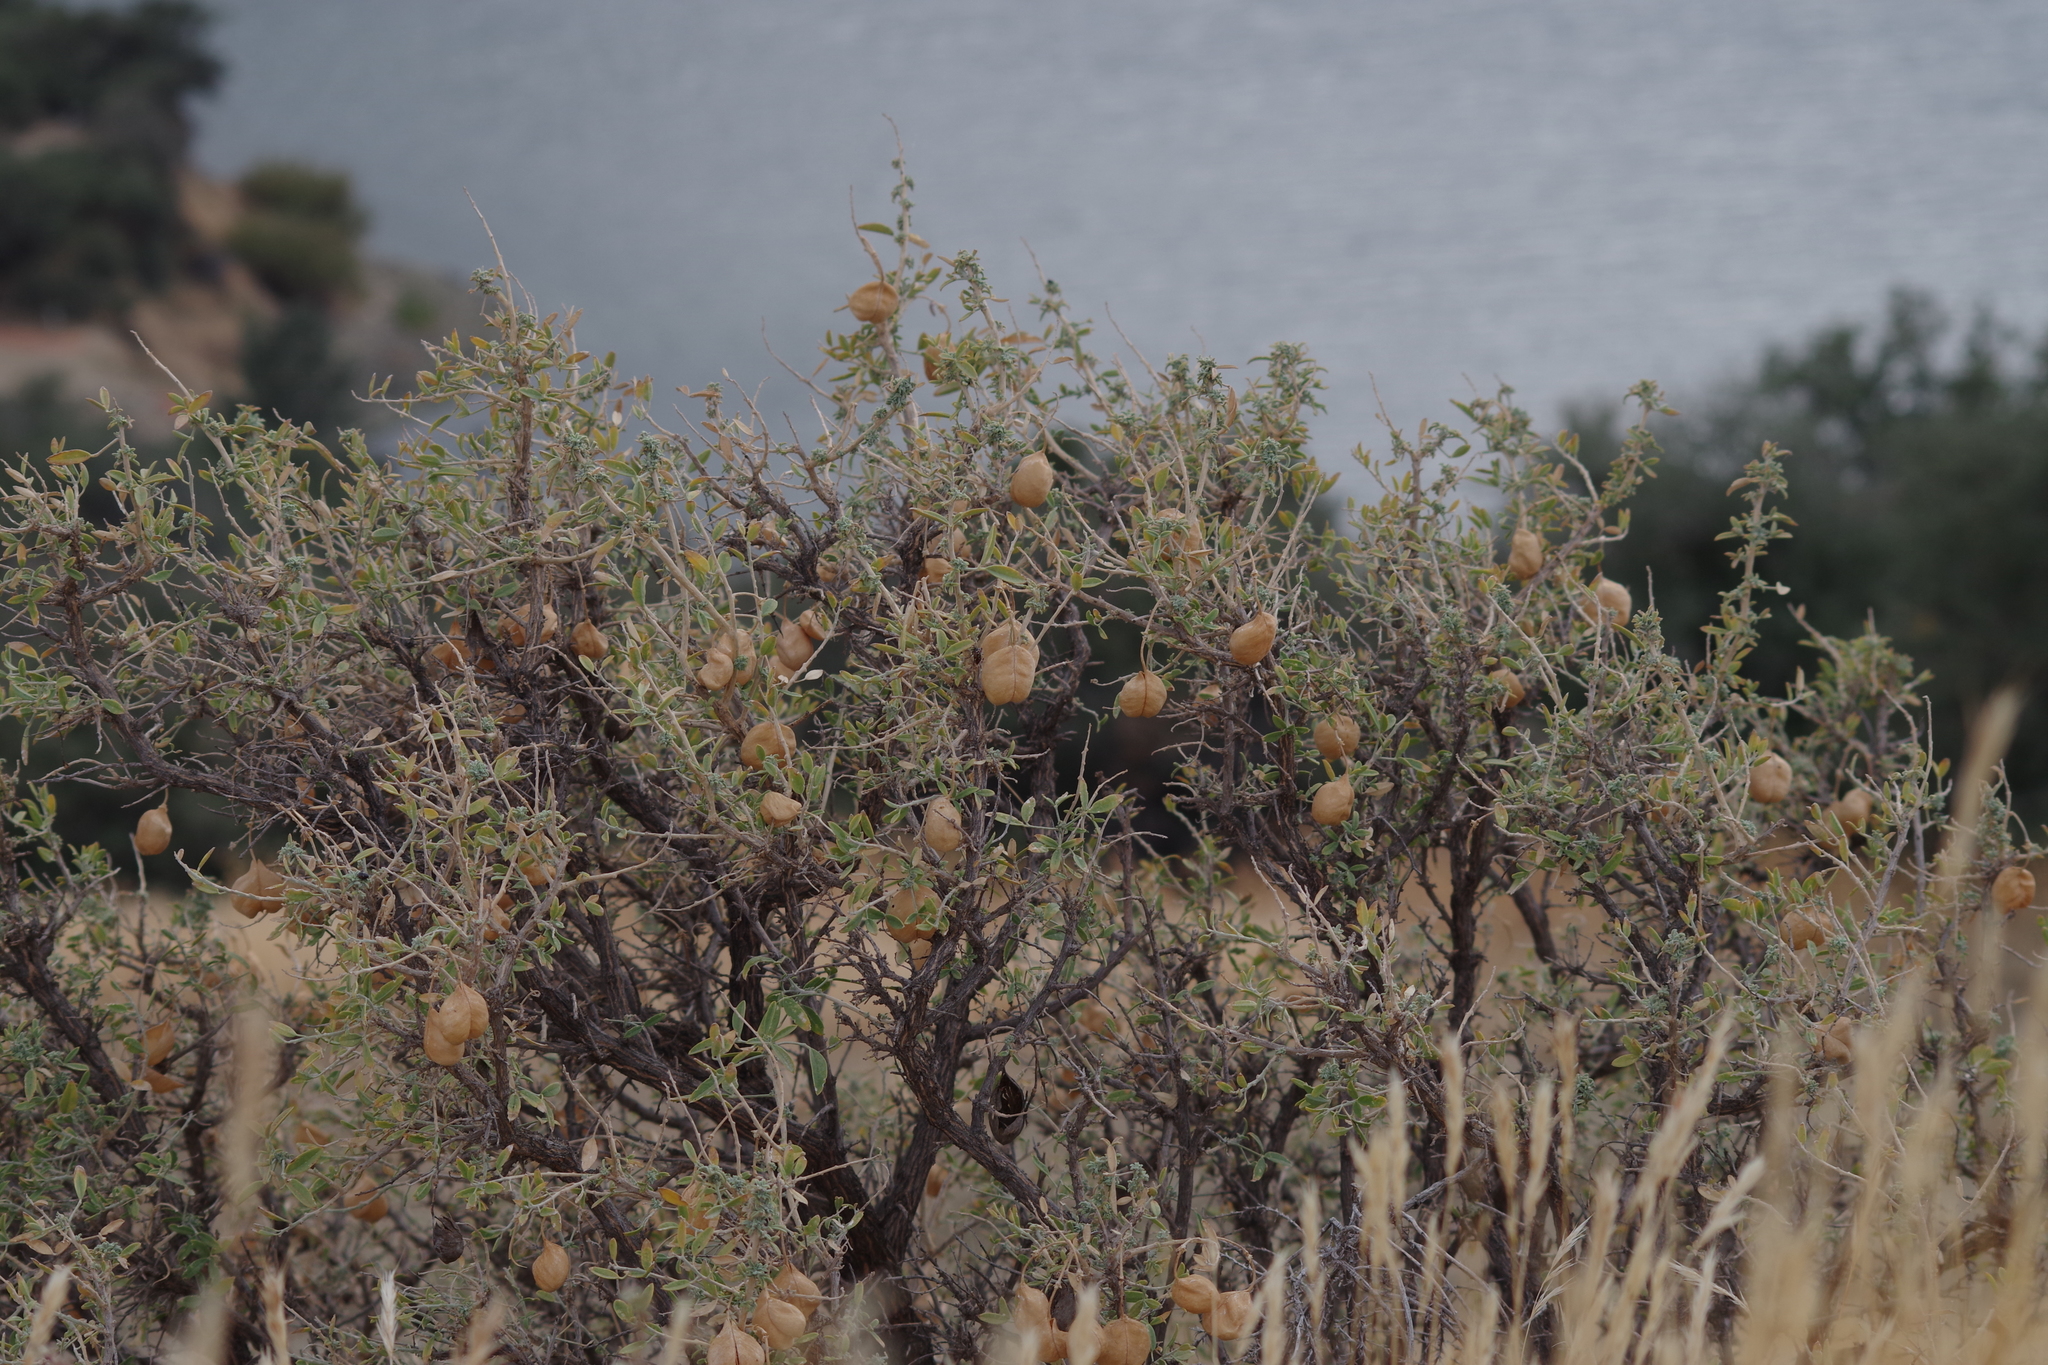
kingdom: Plantae
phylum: Tracheophyta
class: Magnoliopsida
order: Brassicales
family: Cleomaceae
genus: Cleomella
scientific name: Cleomella arborea
